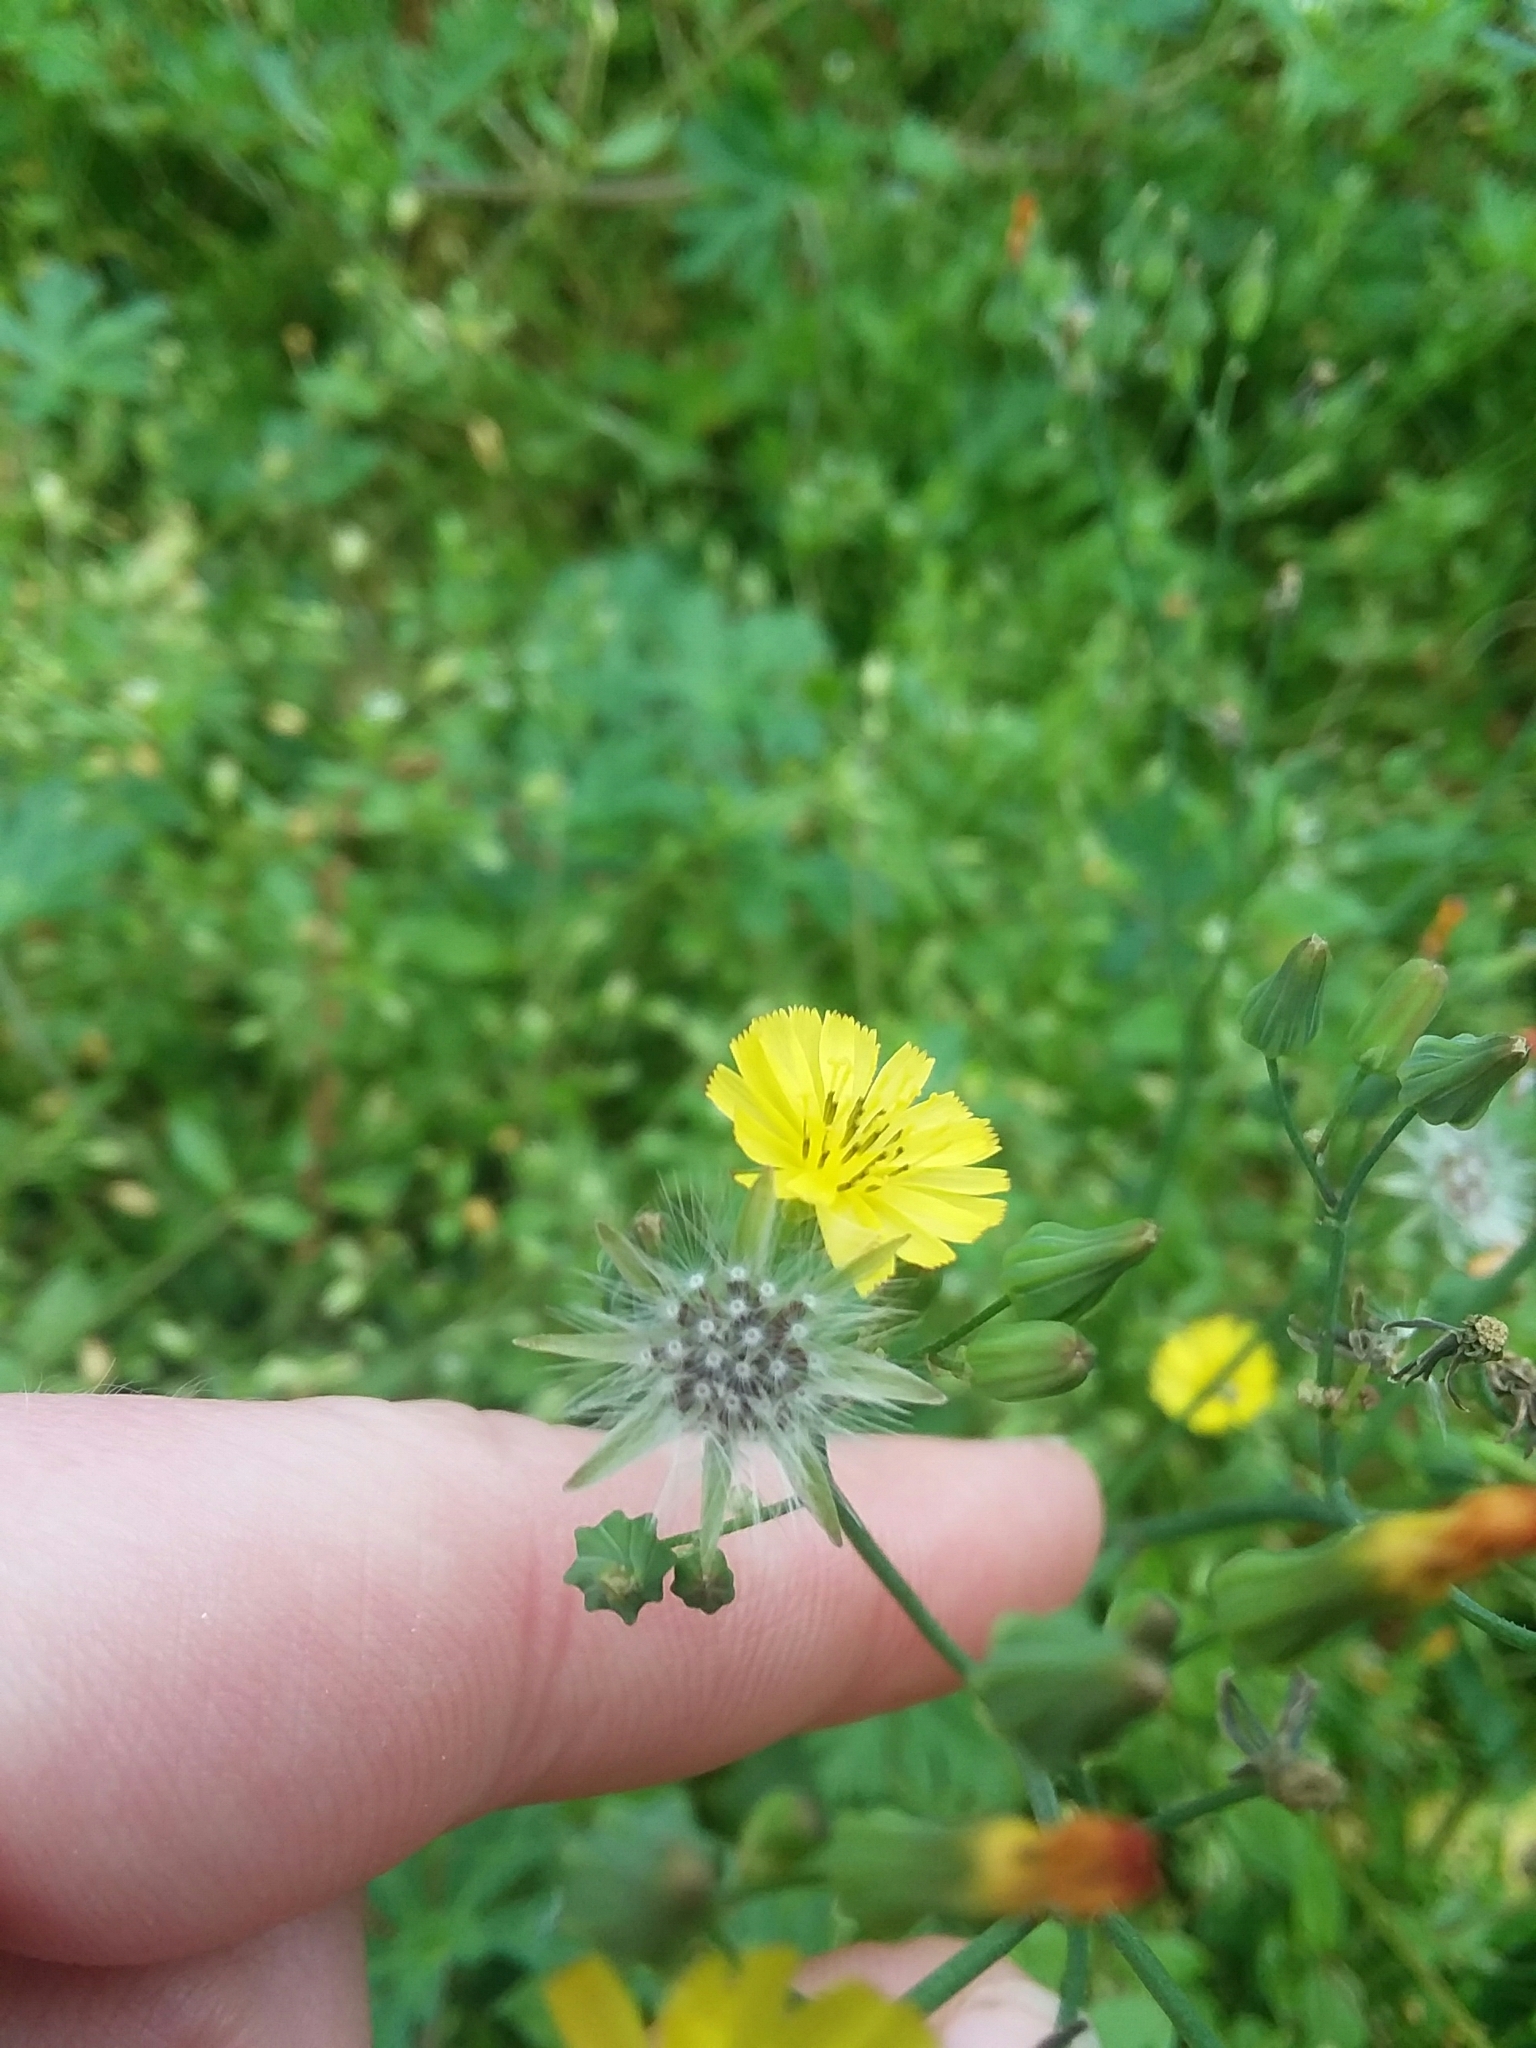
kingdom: Plantae
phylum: Tracheophyta
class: Magnoliopsida
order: Asterales
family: Asteraceae
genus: Youngia
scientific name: Youngia japonica
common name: Oriental false hawksbeard
